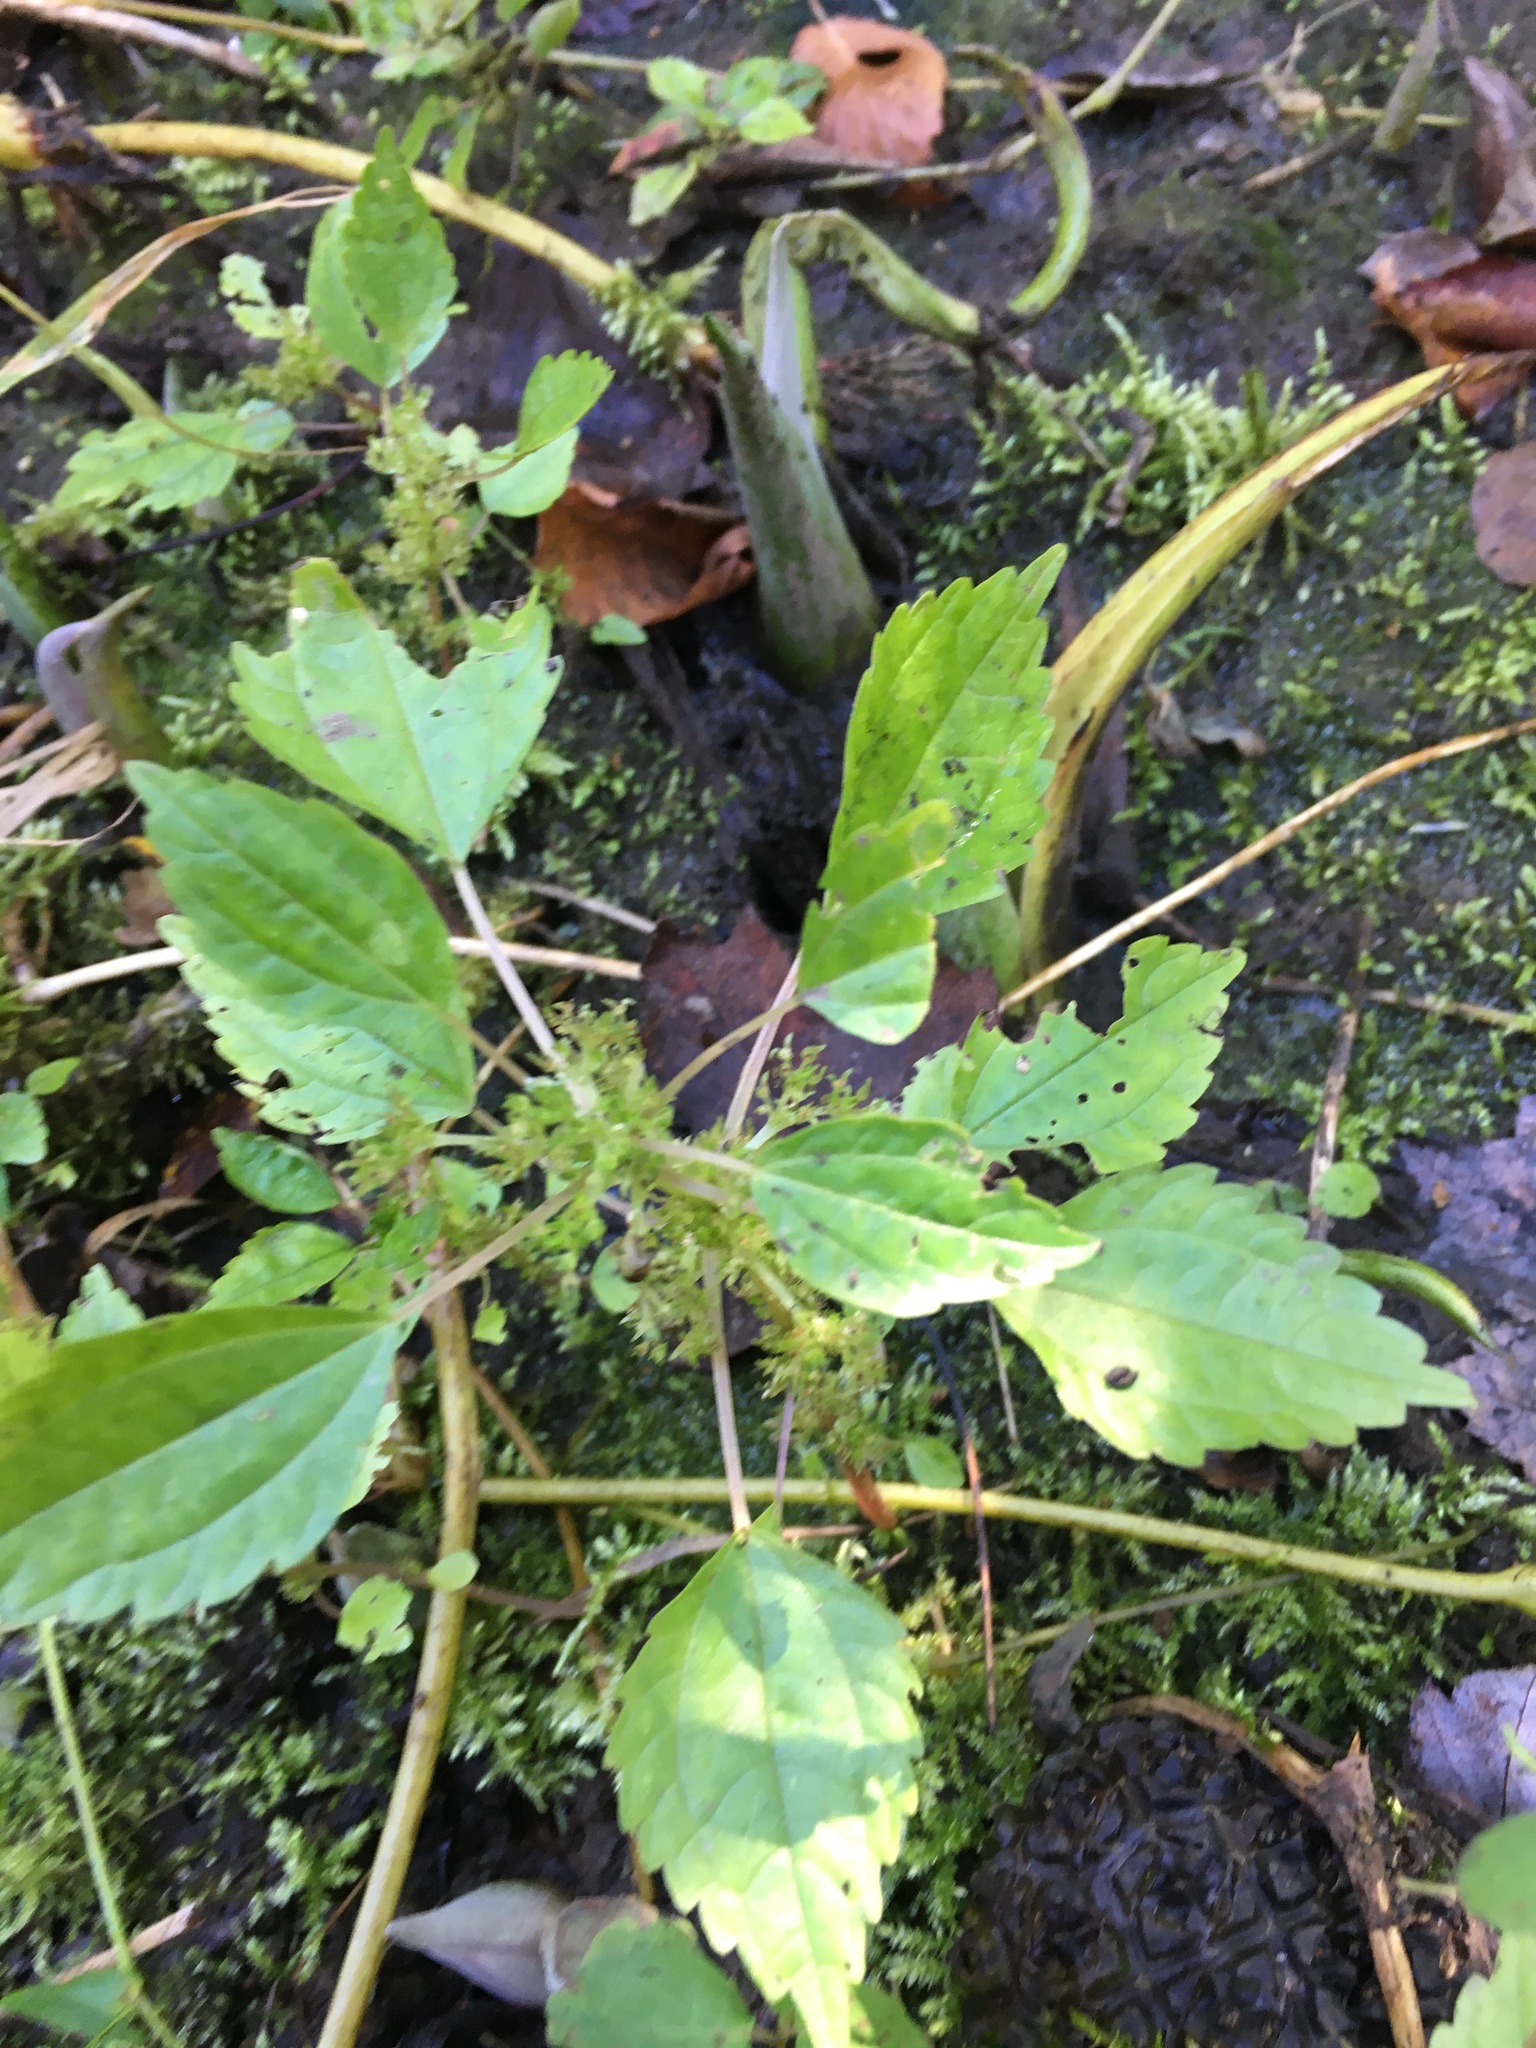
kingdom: Plantae
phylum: Tracheophyta
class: Magnoliopsida
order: Rosales
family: Urticaceae
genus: Pilea
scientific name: Pilea pumila
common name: Clearweed
